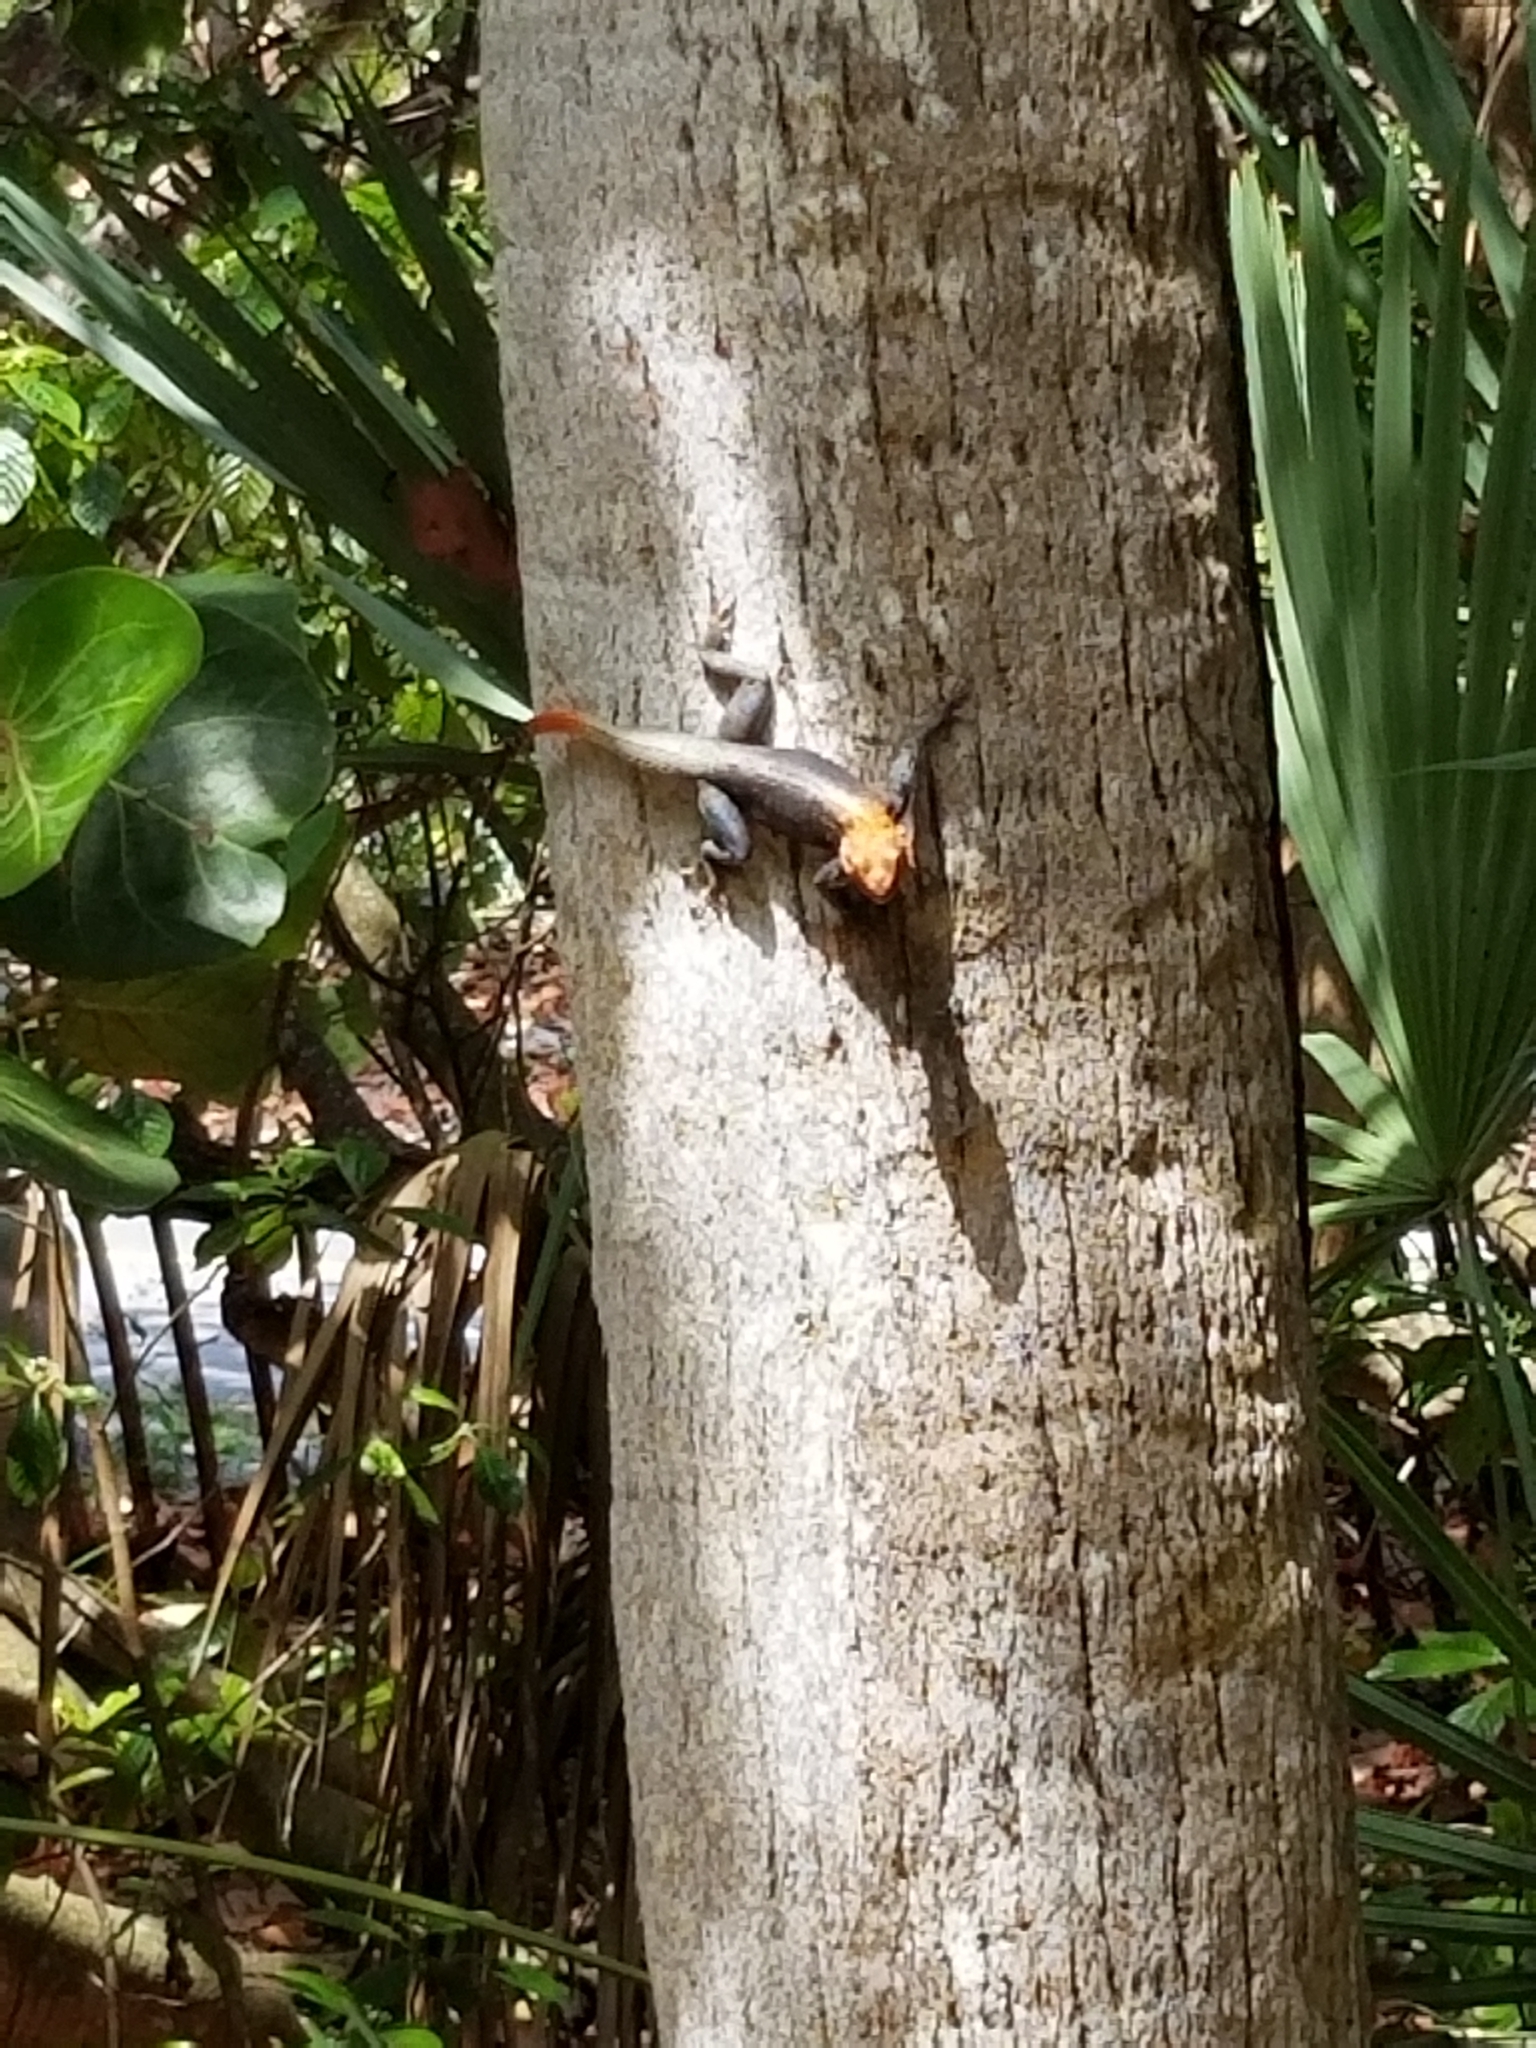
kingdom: Animalia
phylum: Chordata
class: Squamata
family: Agamidae
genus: Agama
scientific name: Agama picticauda
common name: Red-headed agama
